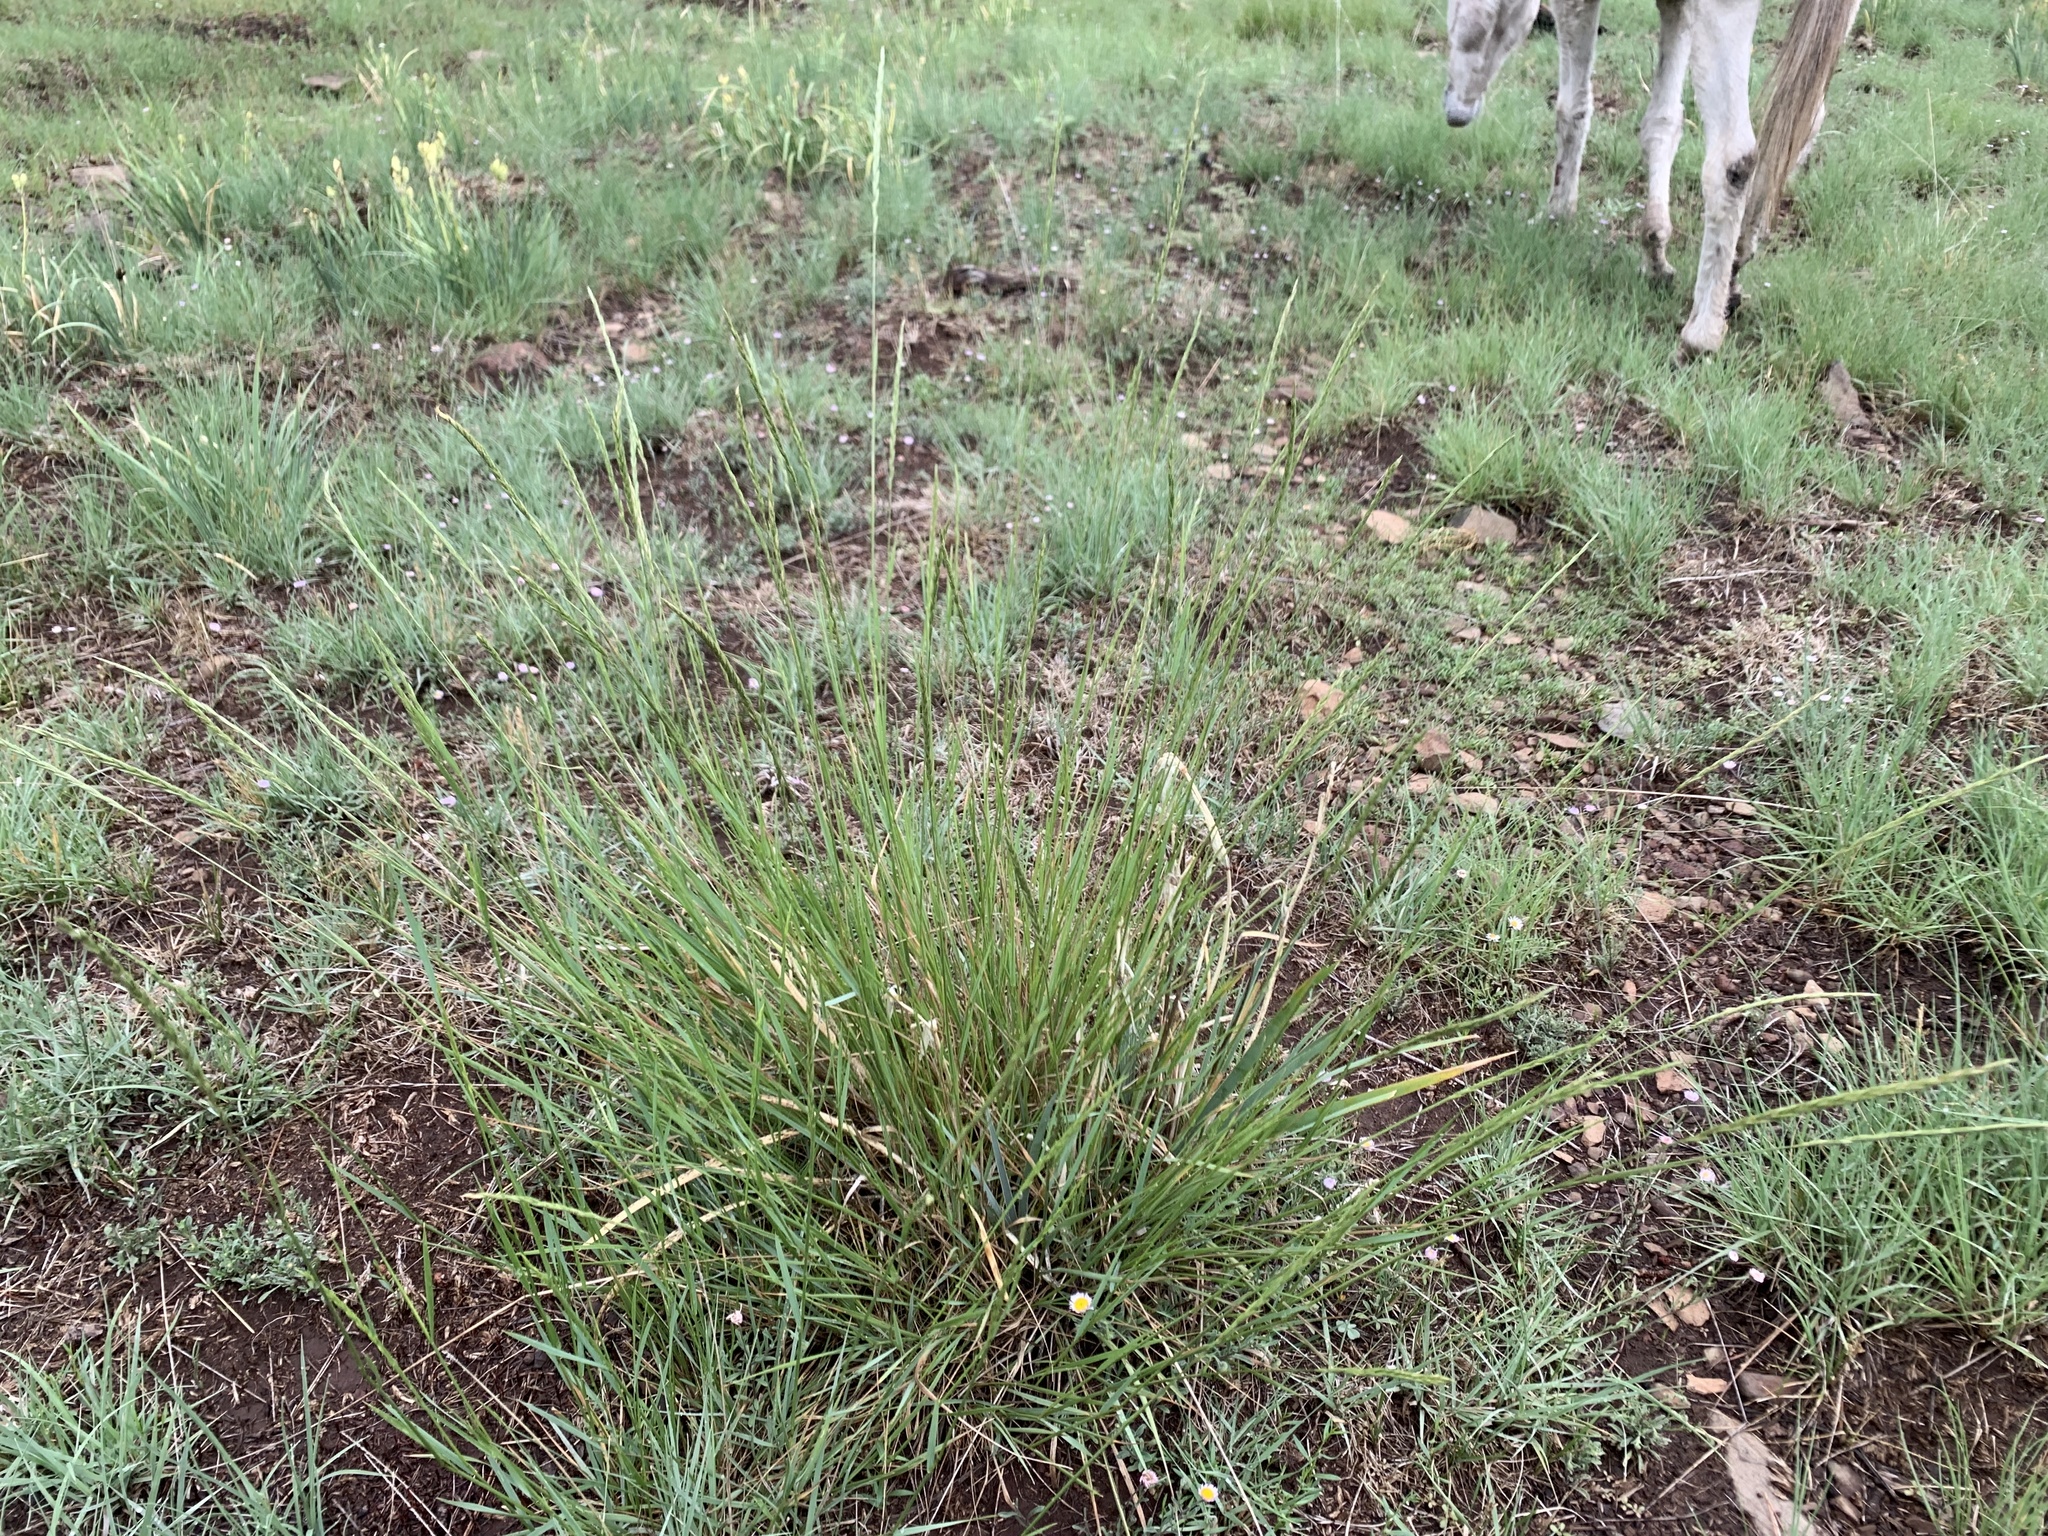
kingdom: Plantae
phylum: Tracheophyta
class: Liliopsida
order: Poales
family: Poaceae
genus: Elymus
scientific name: Elymus violaceus
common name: Arctic wheatgrass
